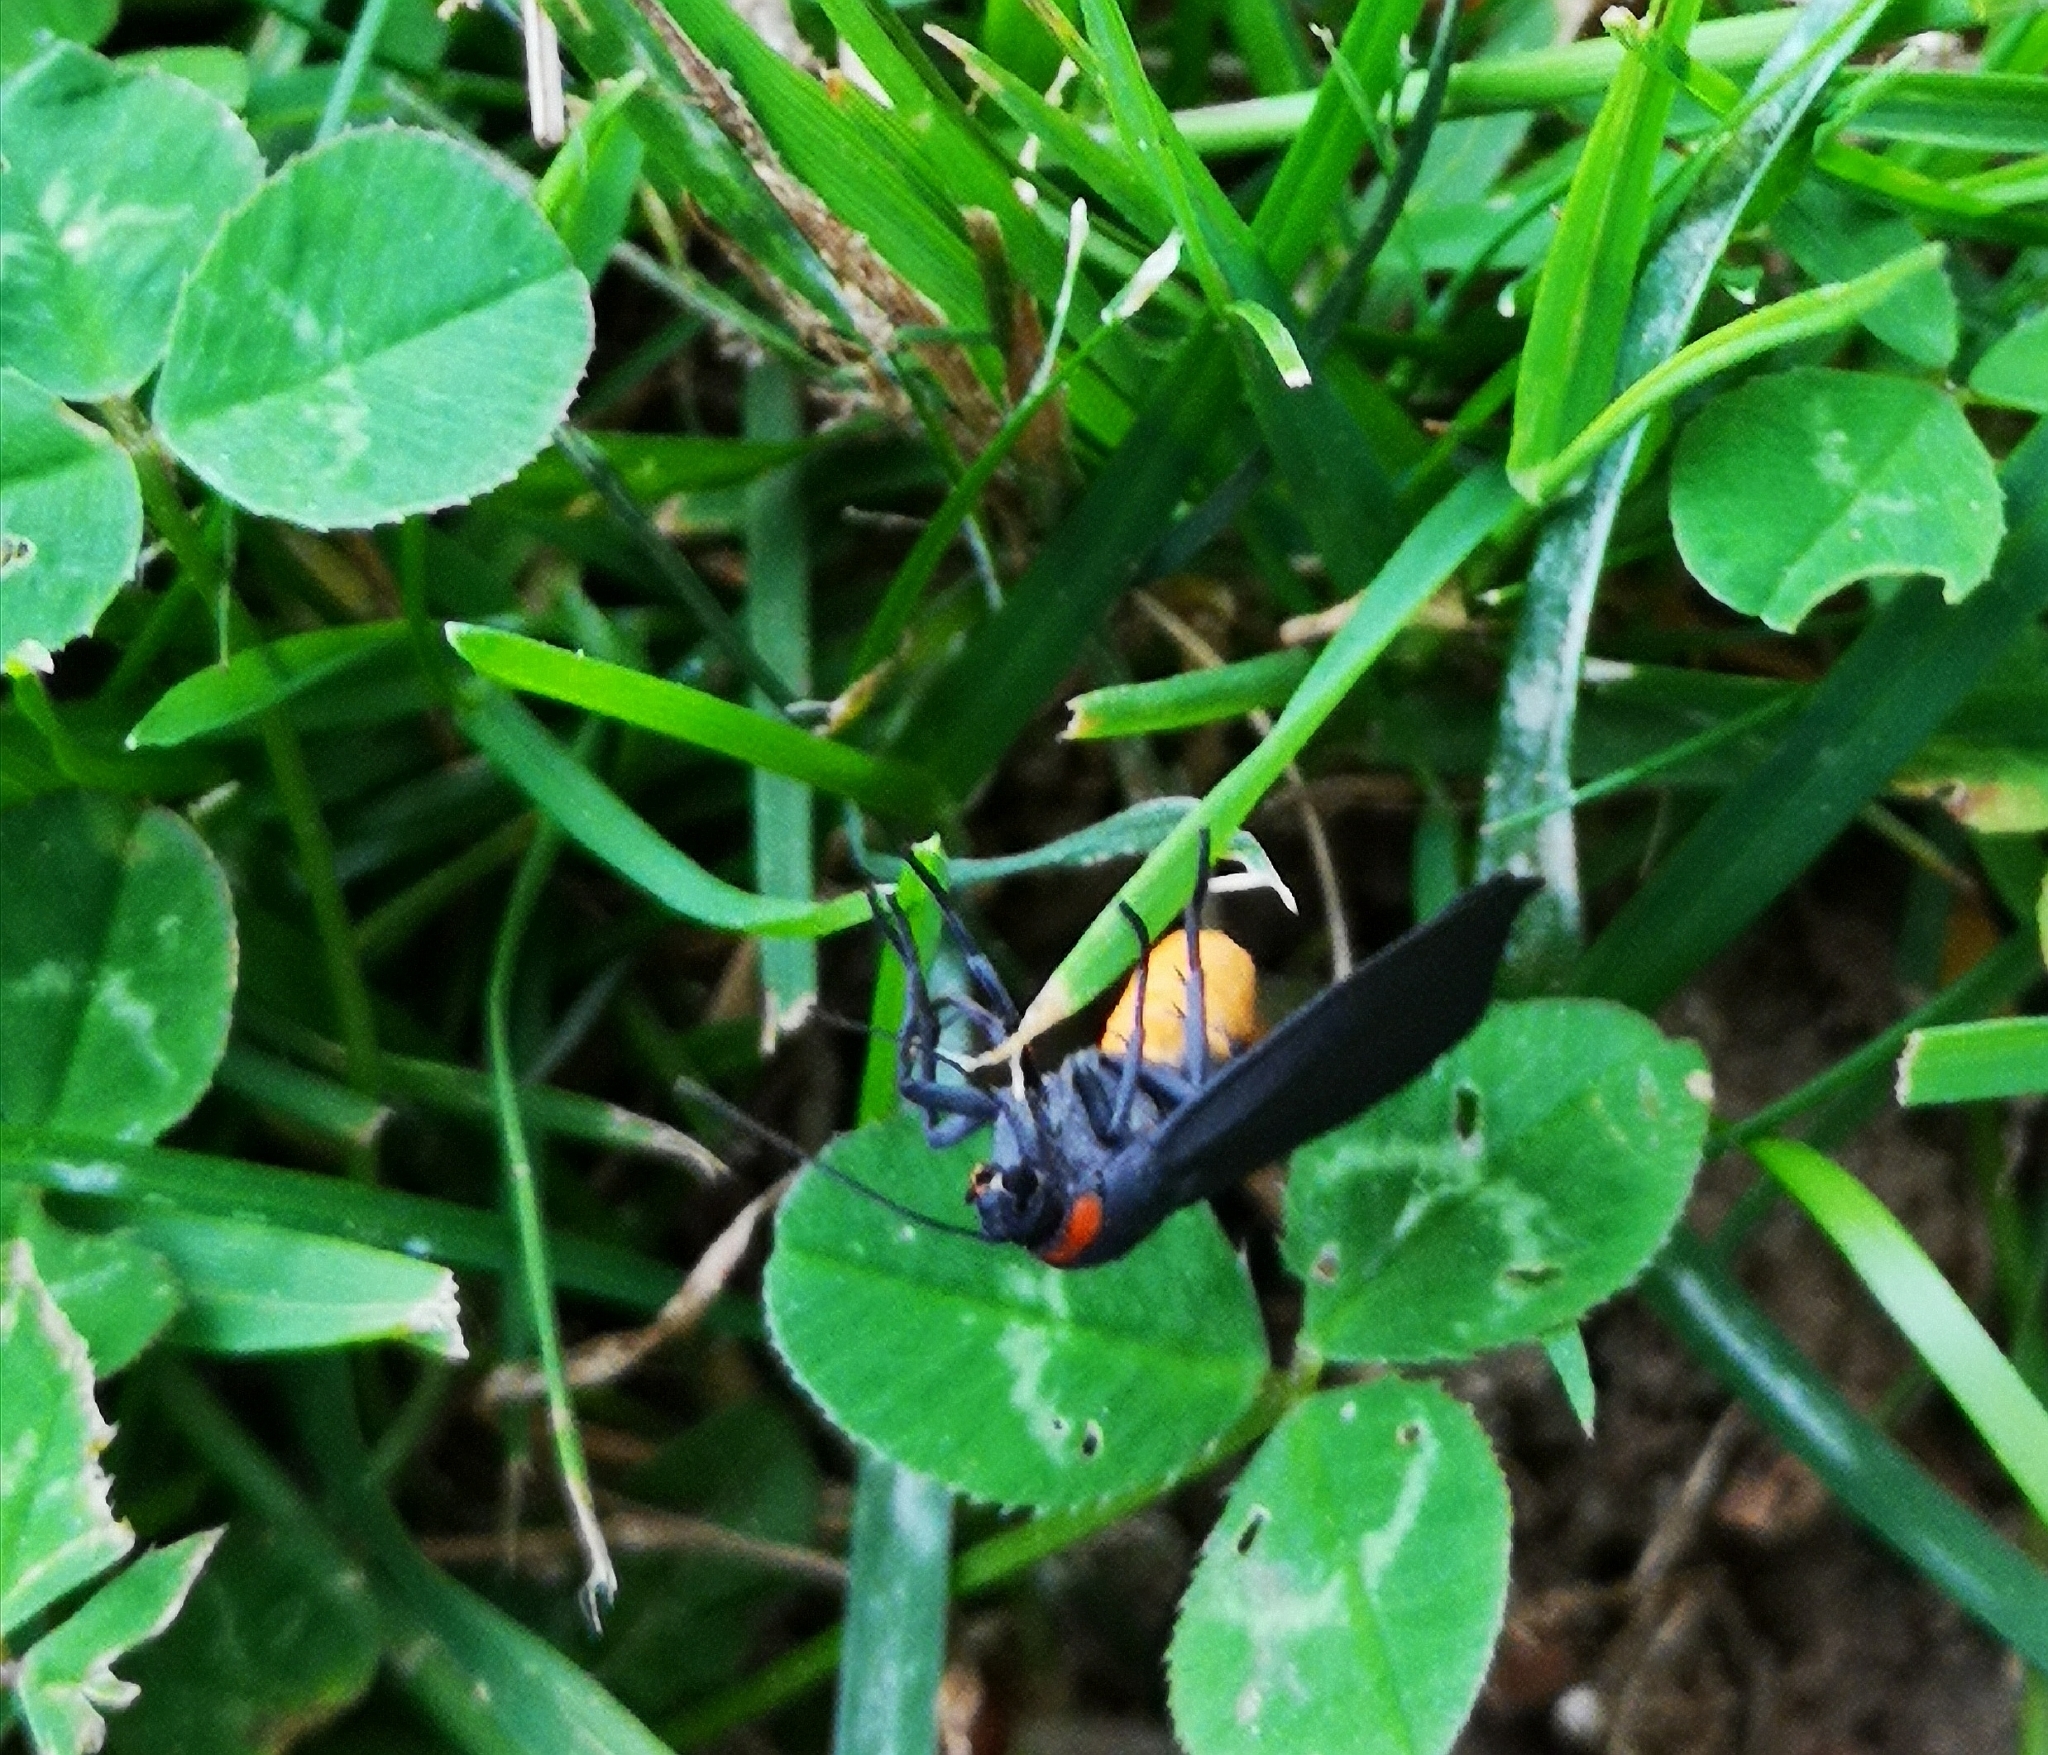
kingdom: Animalia
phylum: Arthropoda
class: Insecta
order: Lepidoptera
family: Erebidae
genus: Atolmis
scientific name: Atolmis rubricollis
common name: Red-necked footman
